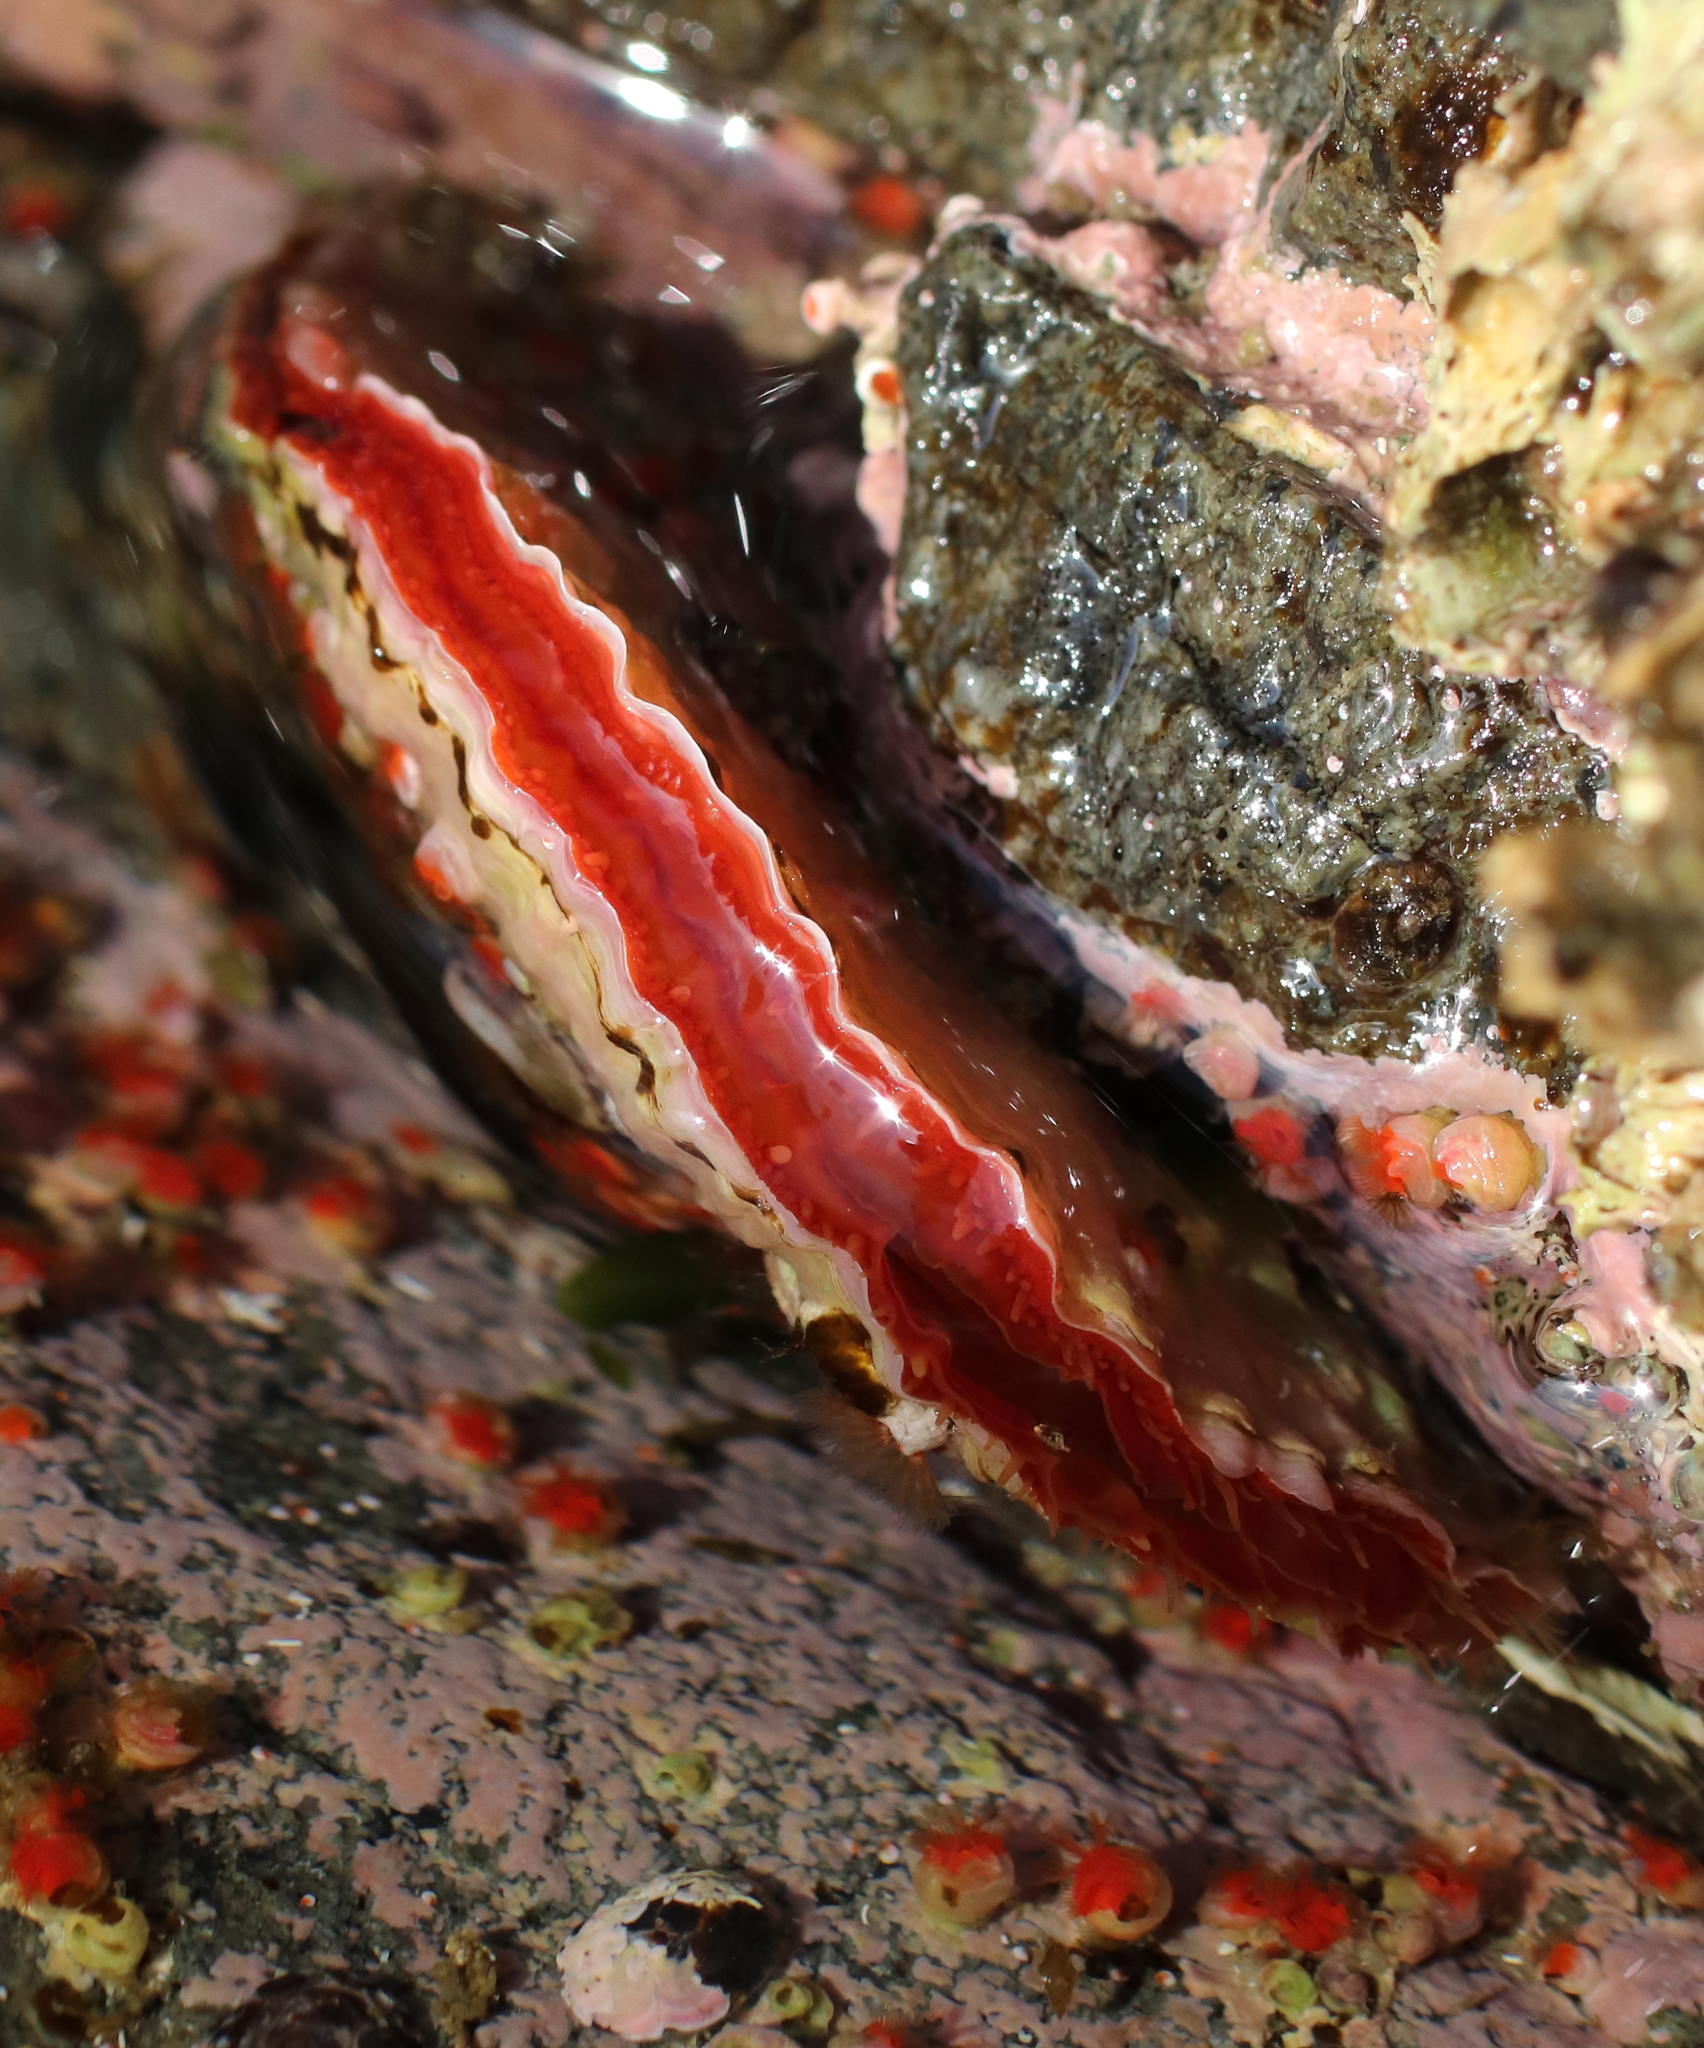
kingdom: Animalia
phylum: Mollusca
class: Bivalvia
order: Pectinida
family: Anomiidae
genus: Pododesmus
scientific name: Pododesmus macrochisma
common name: Alaska jingle
